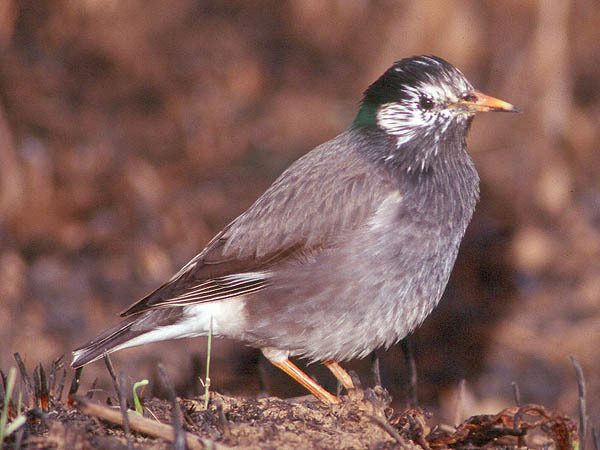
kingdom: Animalia
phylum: Chordata
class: Aves
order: Passeriformes
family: Sturnidae
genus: Spodiopsar
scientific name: Spodiopsar cineraceus
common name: White-cheeked starling
